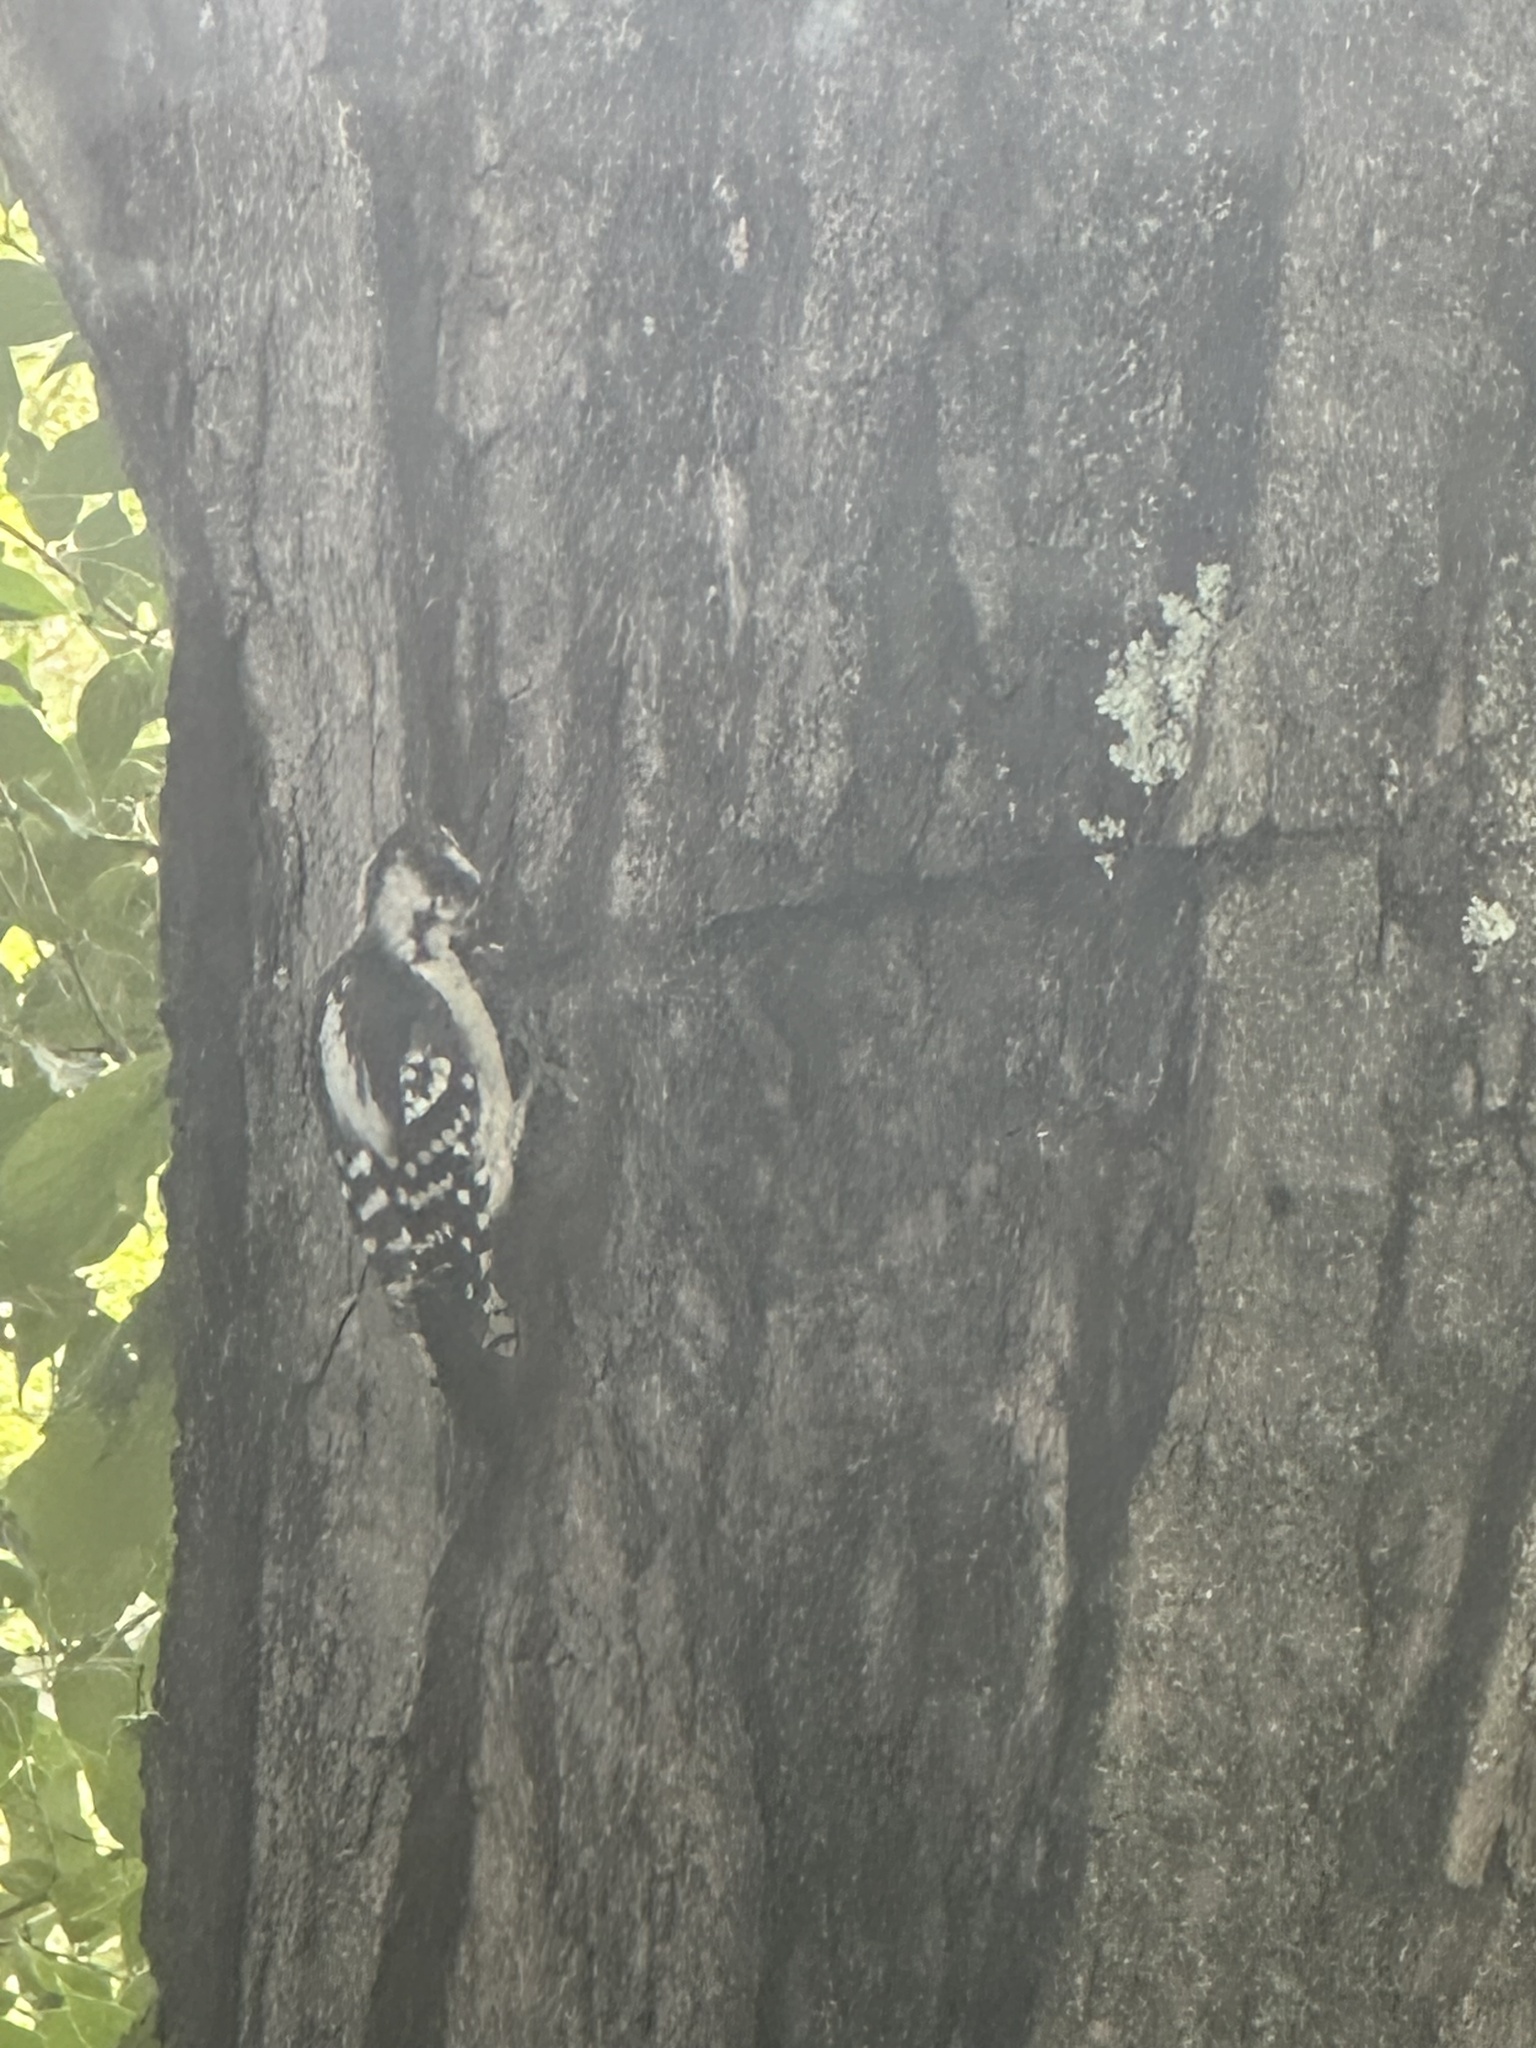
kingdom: Animalia
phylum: Chordata
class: Aves
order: Piciformes
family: Picidae
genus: Dryobates
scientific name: Dryobates pubescens
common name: Downy woodpecker
